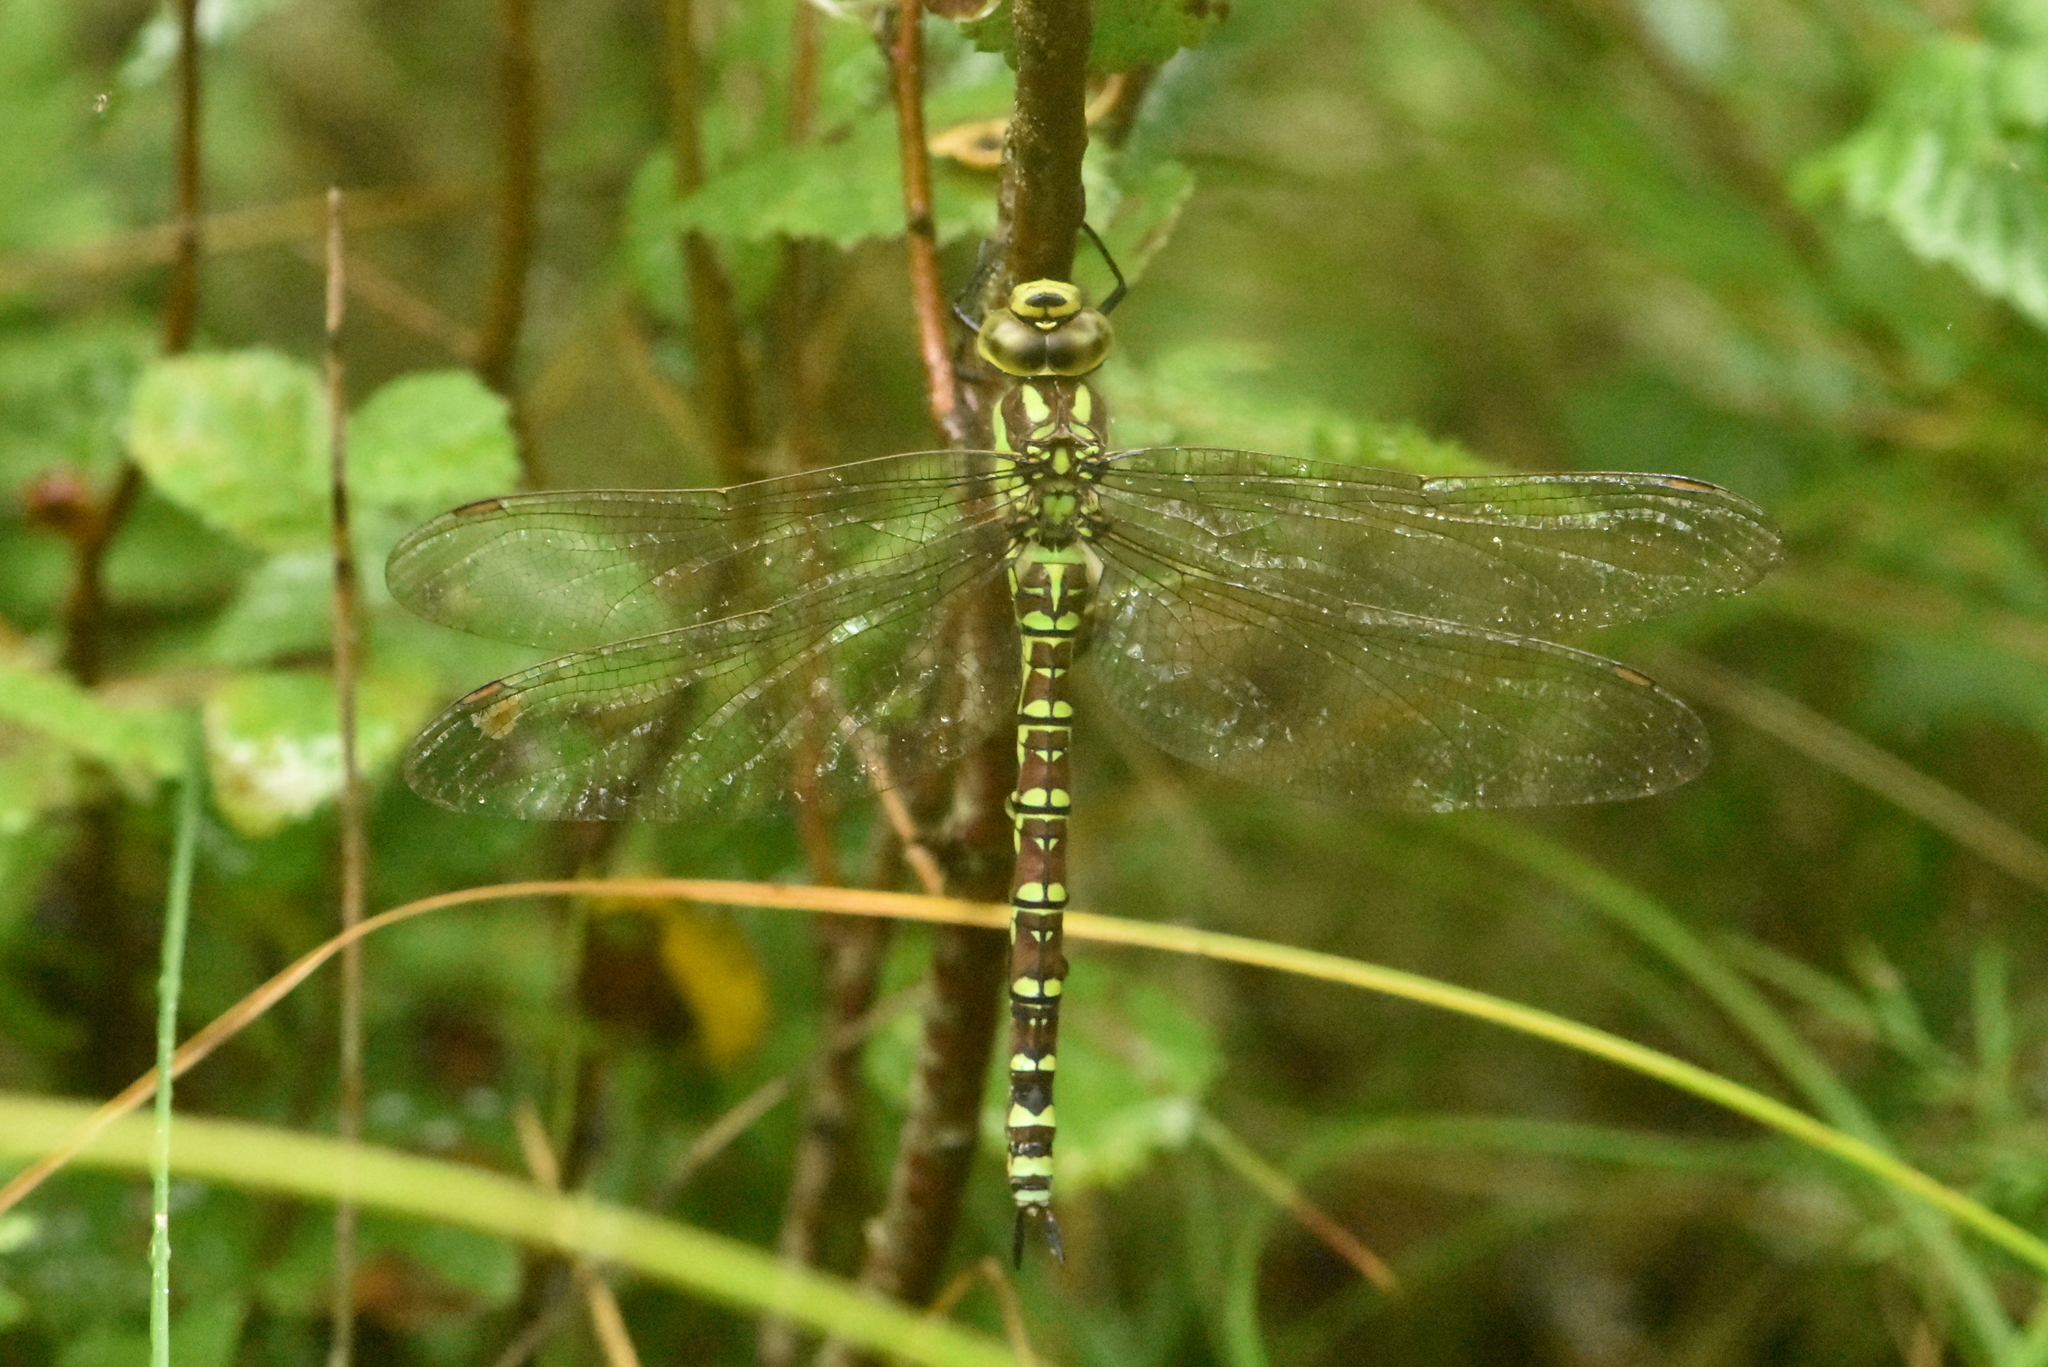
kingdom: Animalia
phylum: Arthropoda
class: Insecta
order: Odonata
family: Aeshnidae
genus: Aeshna
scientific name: Aeshna cyanea
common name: Southern hawker
